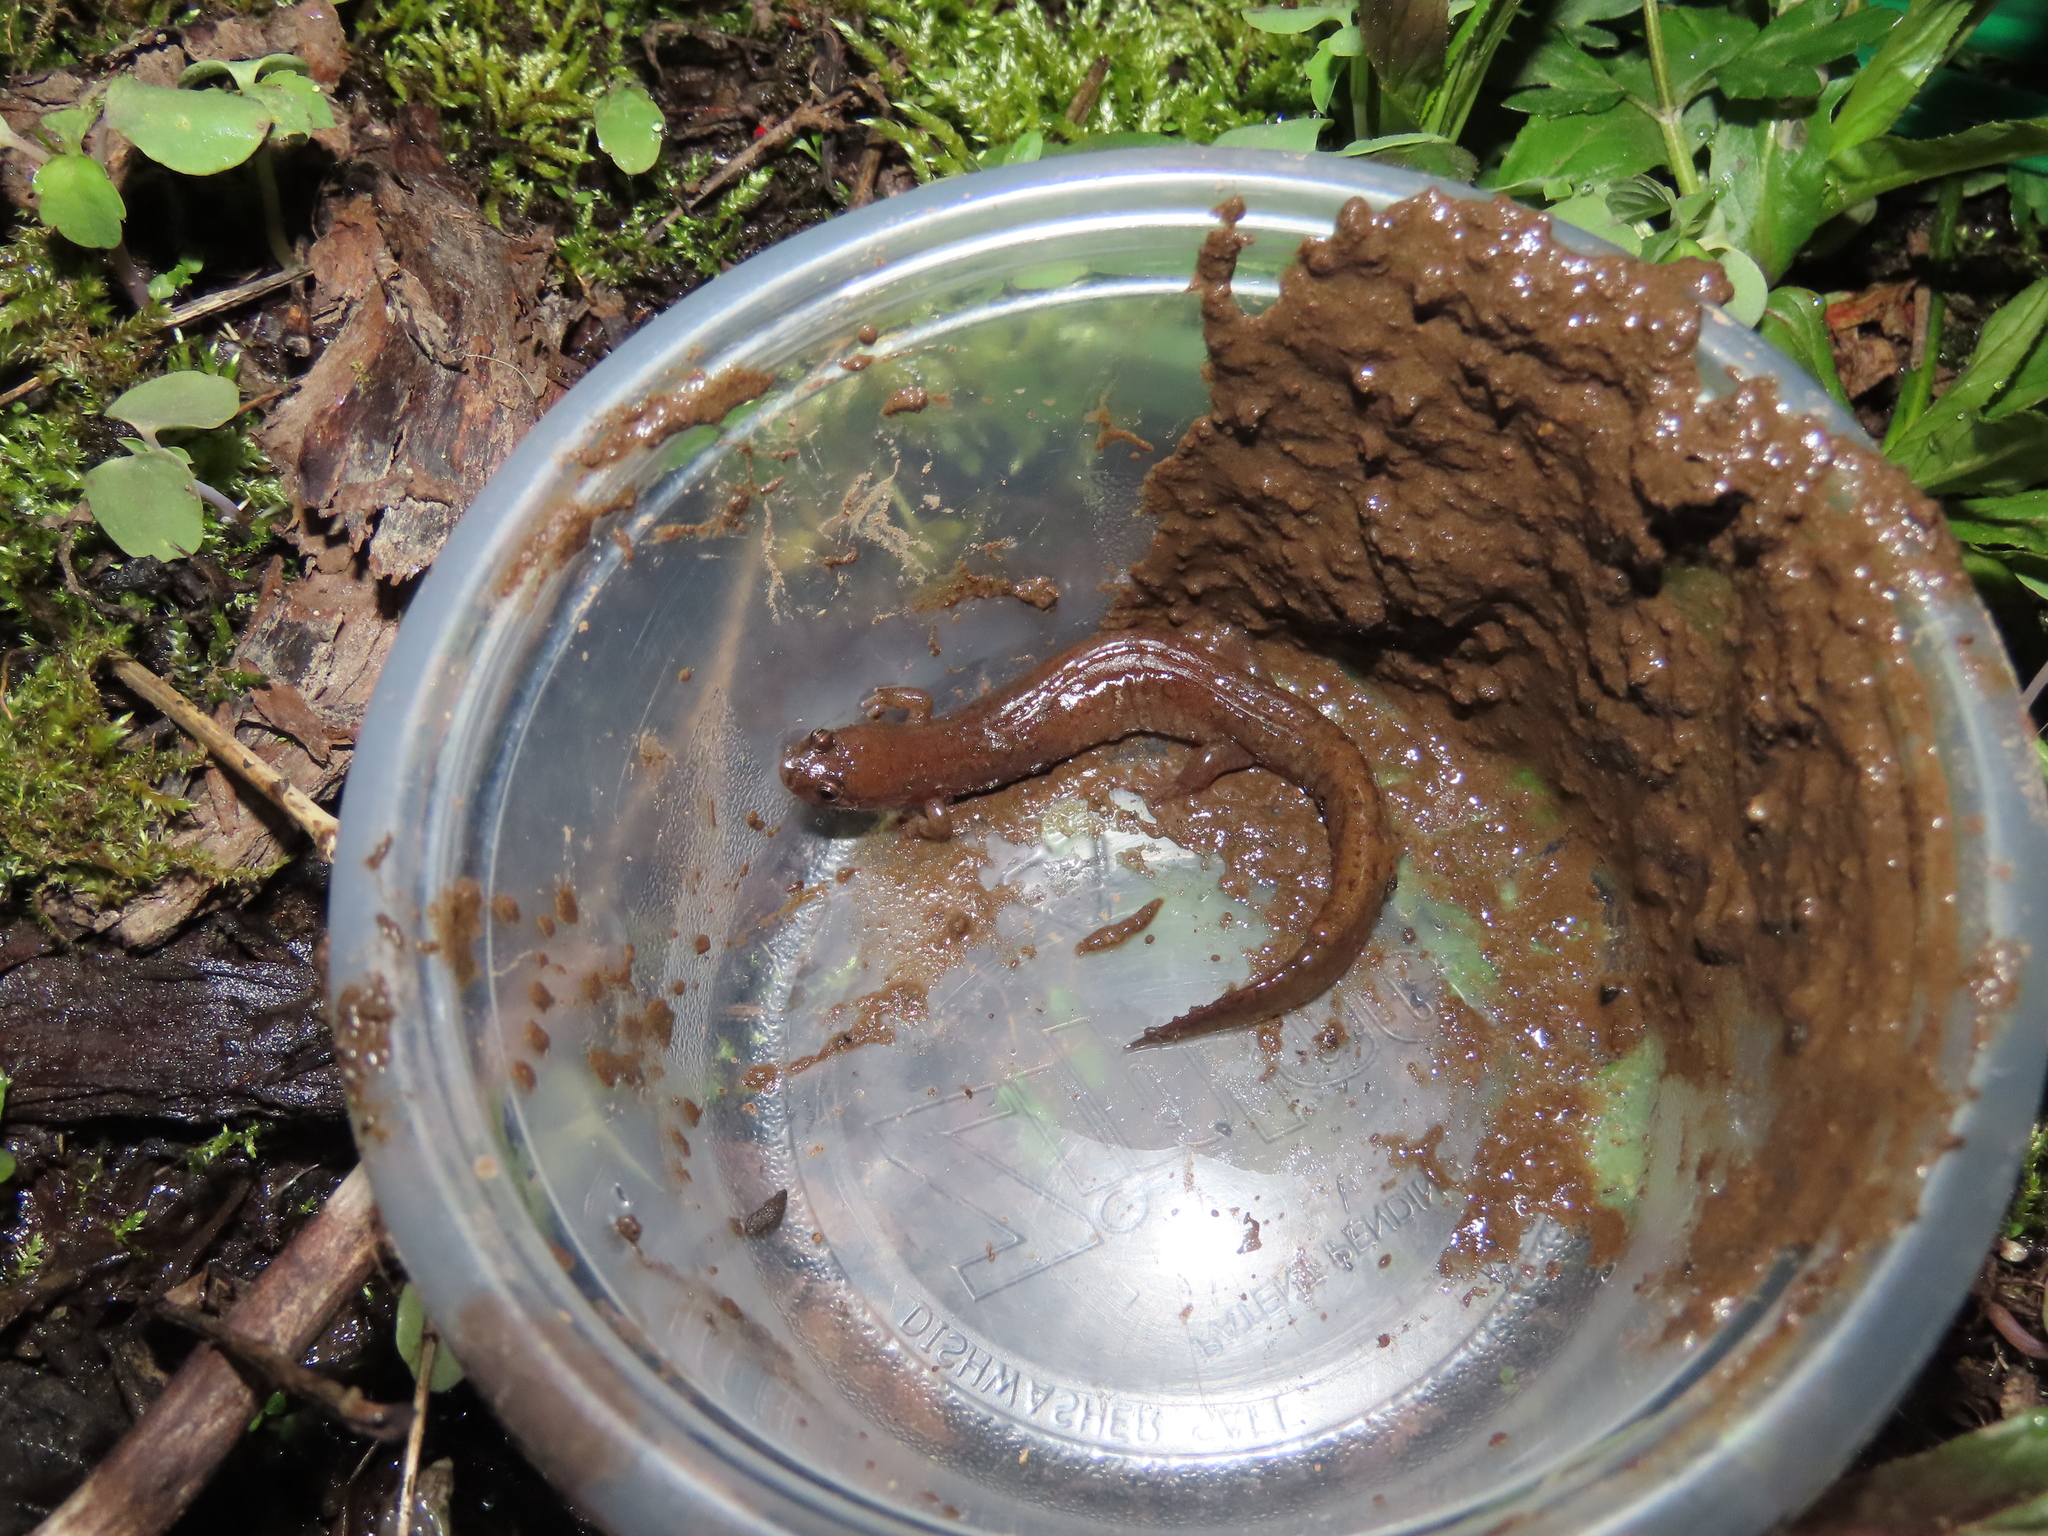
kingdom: Animalia
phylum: Chordata
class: Amphibia
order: Caudata
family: Plethodontidae
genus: Desmognathus
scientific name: Desmognathus fuscus
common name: Northern dusky salamander
